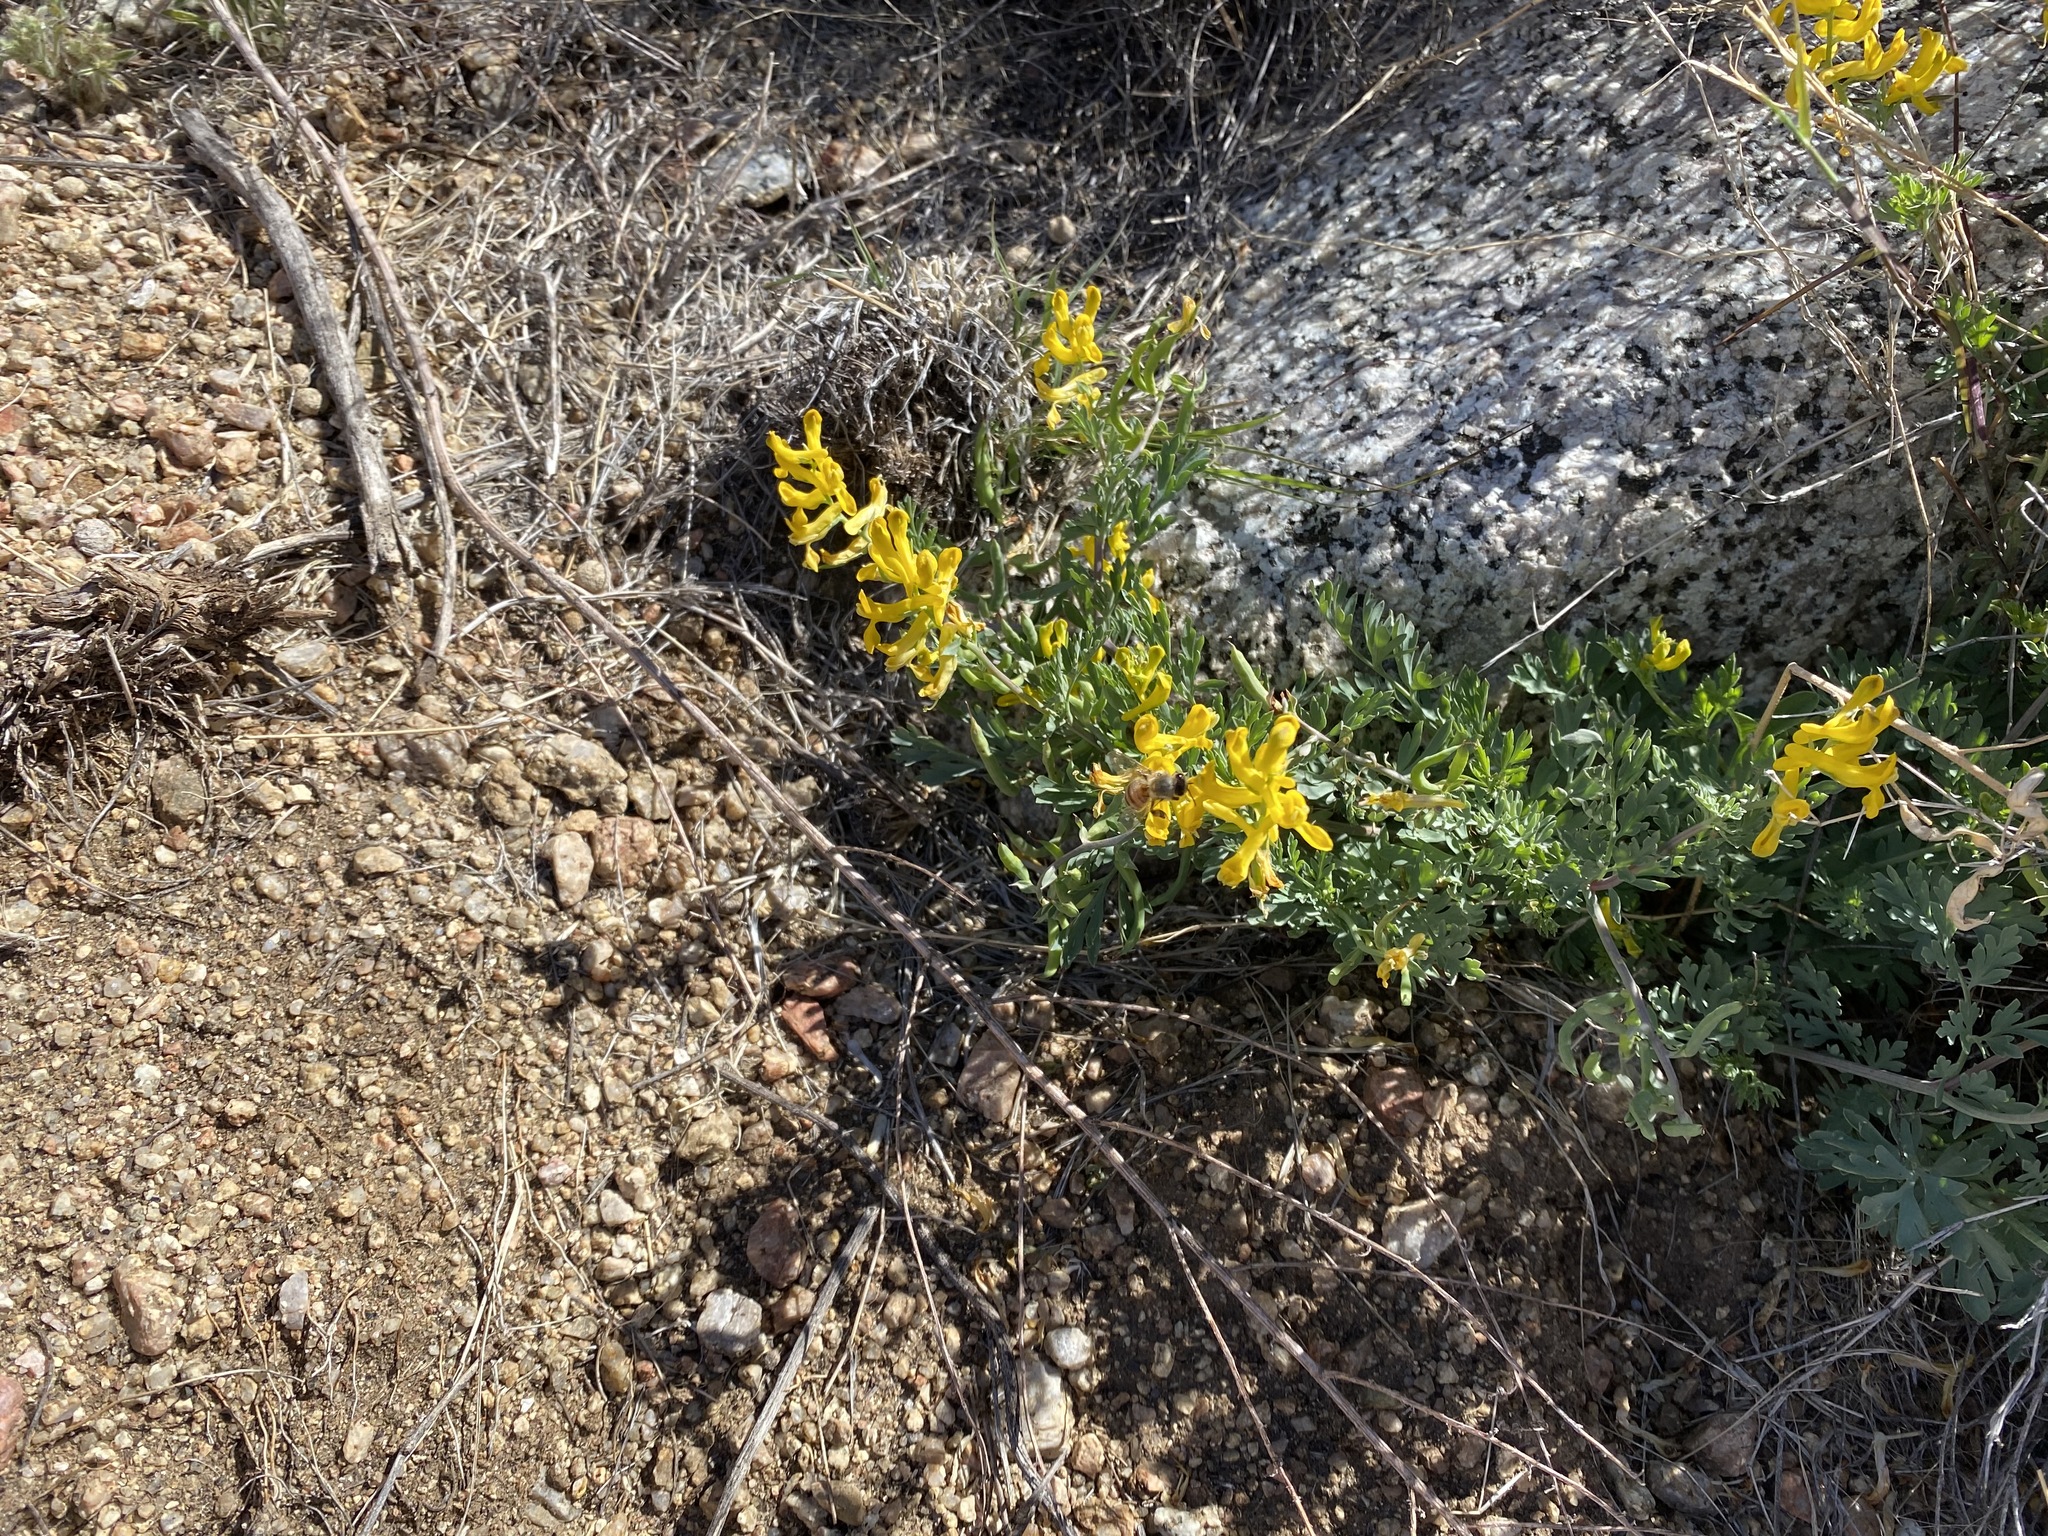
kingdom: Animalia
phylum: Arthropoda
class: Insecta
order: Hymenoptera
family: Apidae
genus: Apis
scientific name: Apis mellifera
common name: Honey bee
